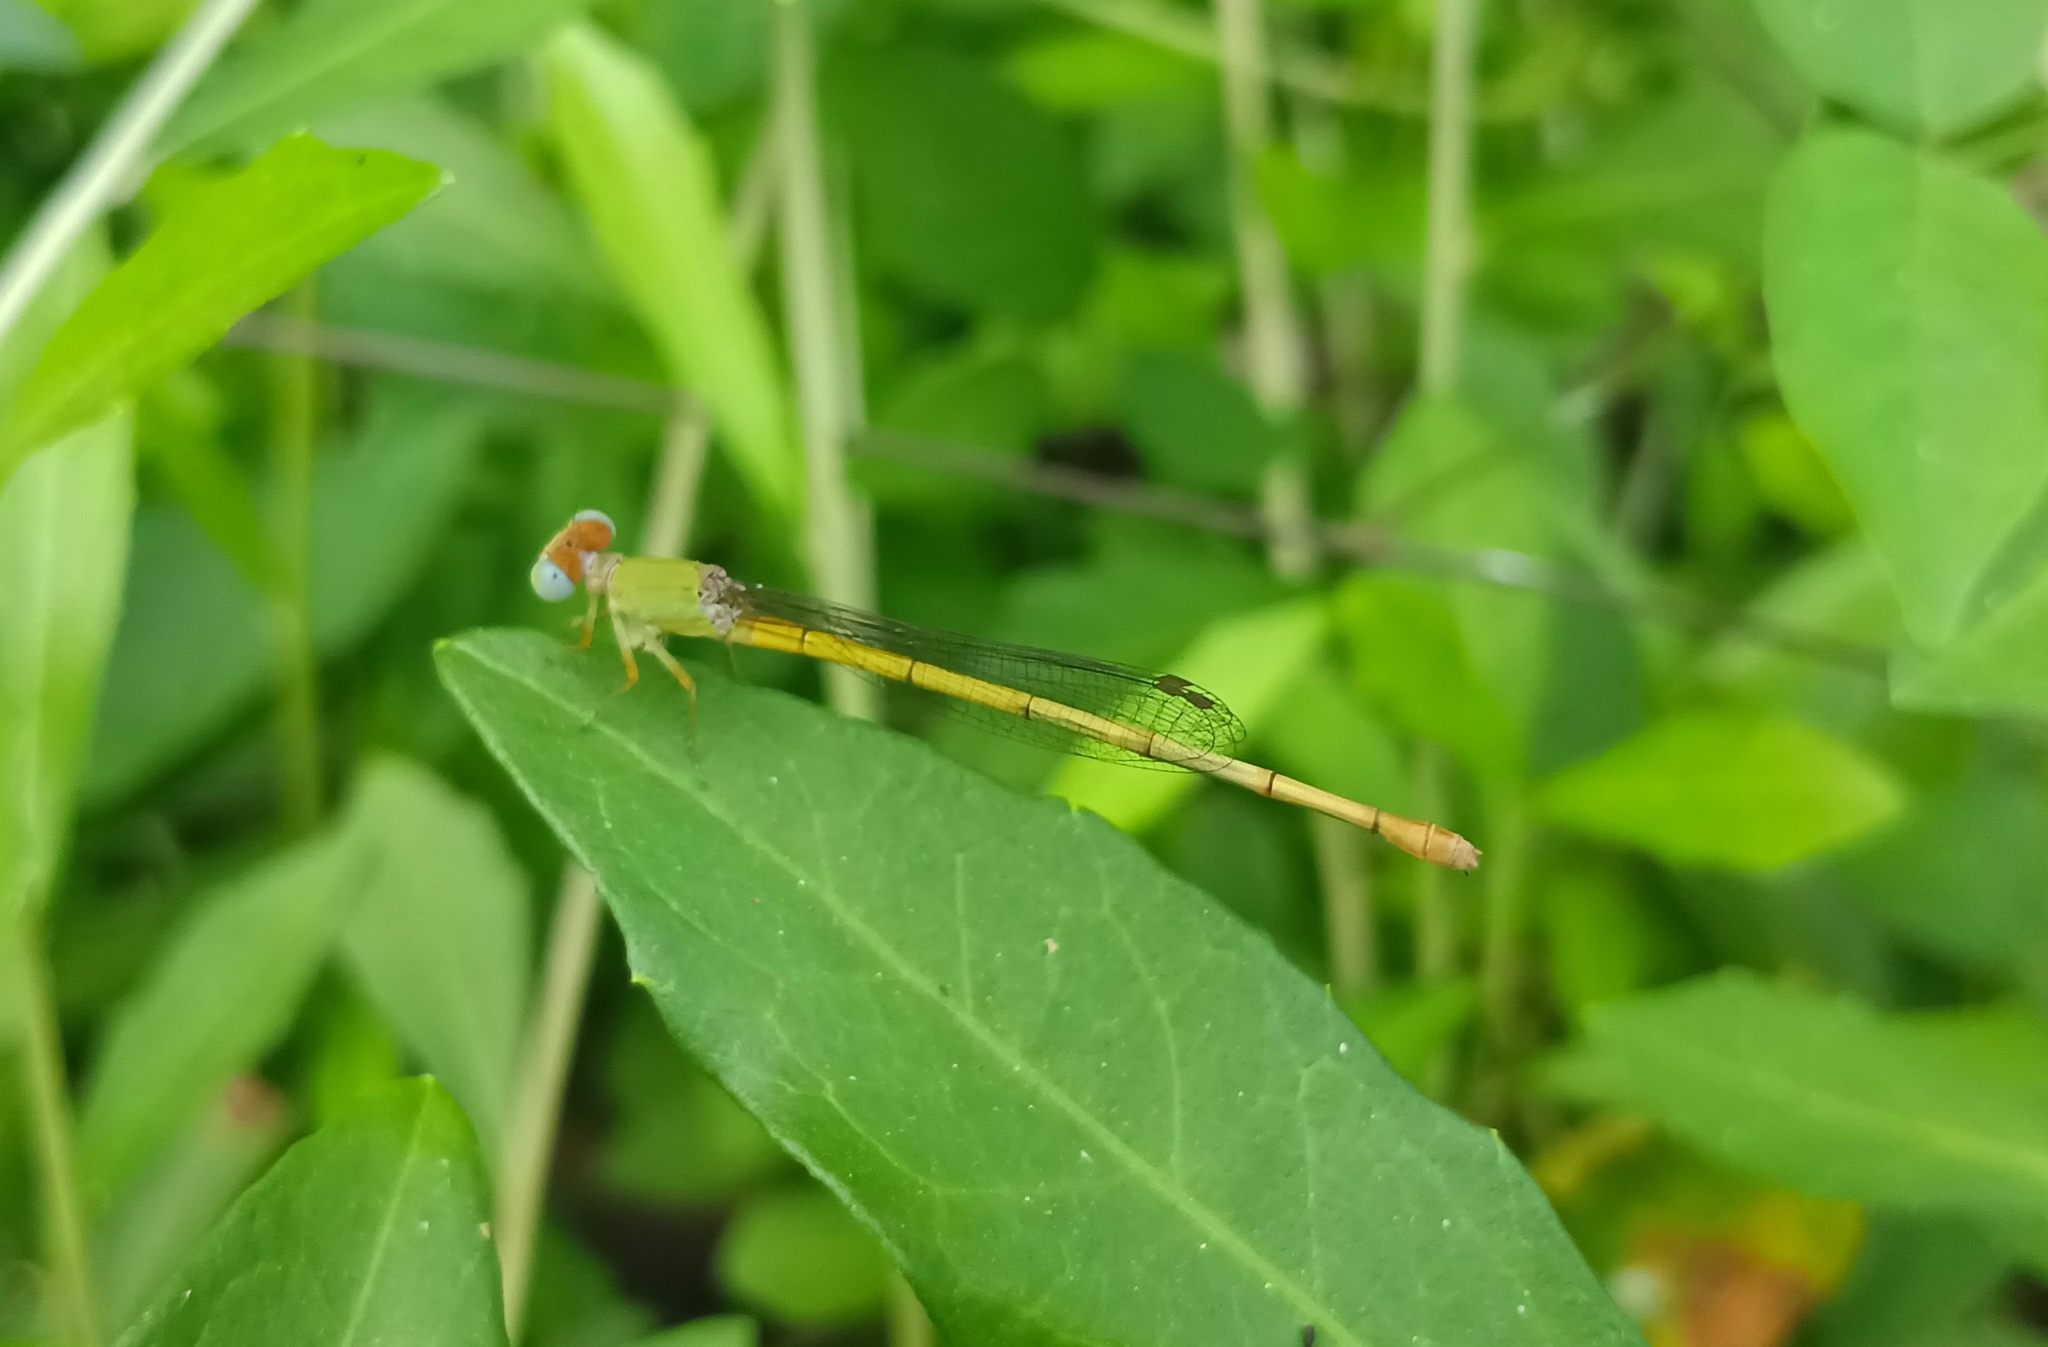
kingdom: Animalia
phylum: Arthropoda
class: Insecta
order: Odonata
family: Coenagrionidae
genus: Ceriagrion
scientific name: Ceriagrion coromandelianum
